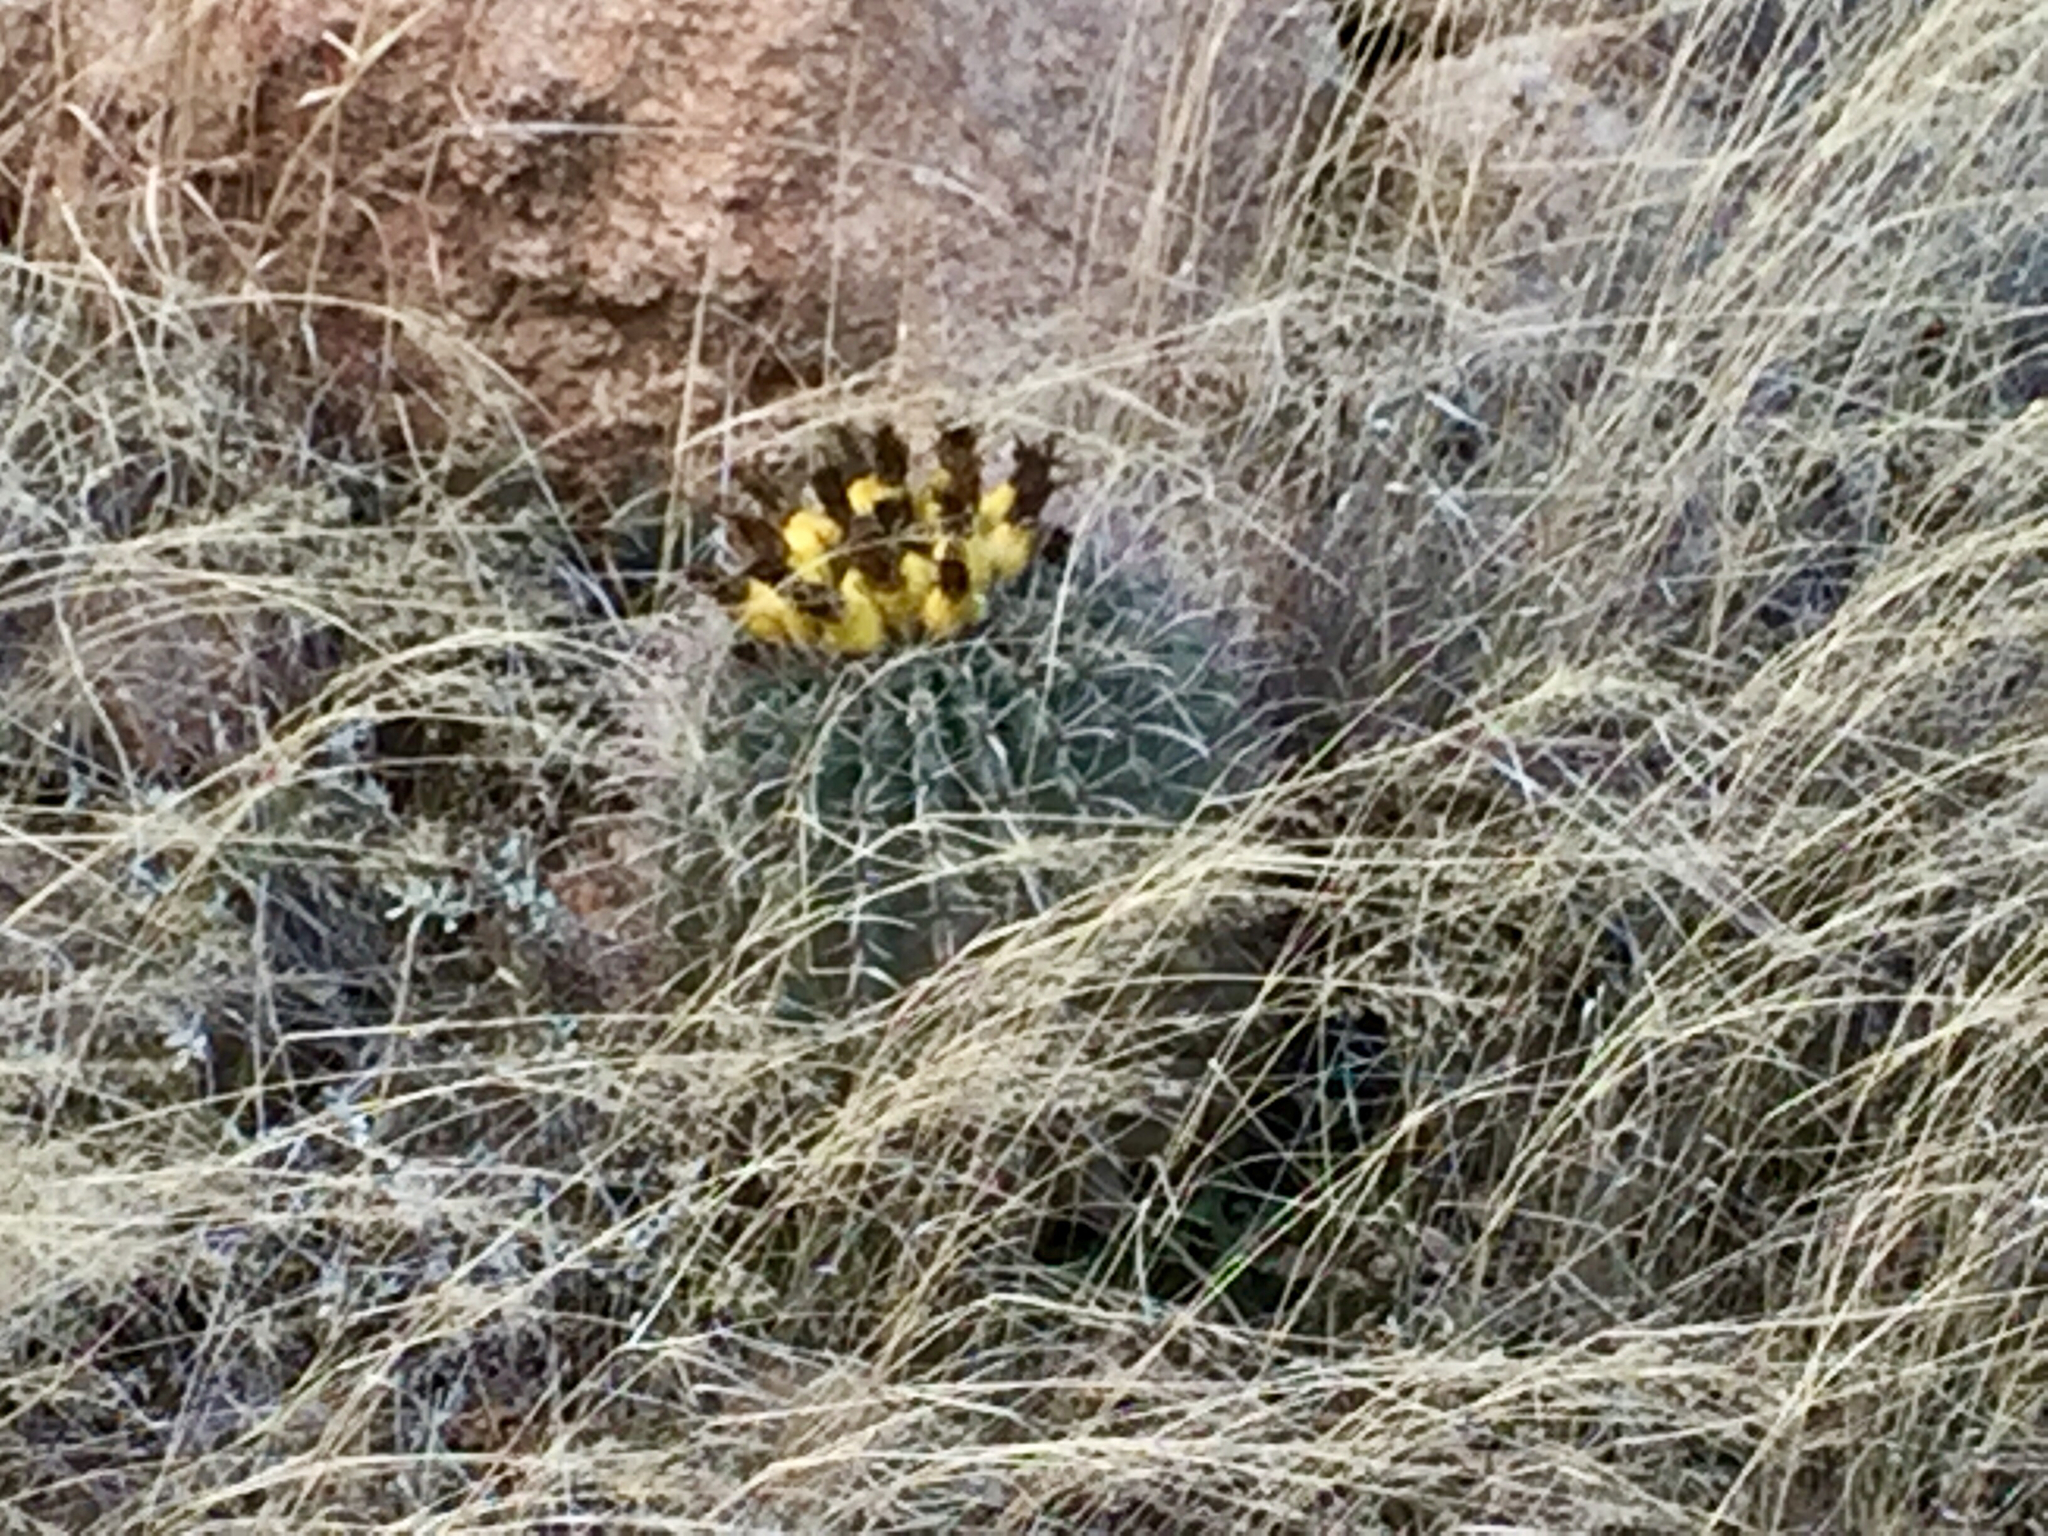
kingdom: Plantae
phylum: Tracheophyta
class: Magnoliopsida
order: Caryophyllales
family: Cactaceae
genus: Ferocactus
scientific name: Ferocactus wislizeni
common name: Candy barrel cactus
